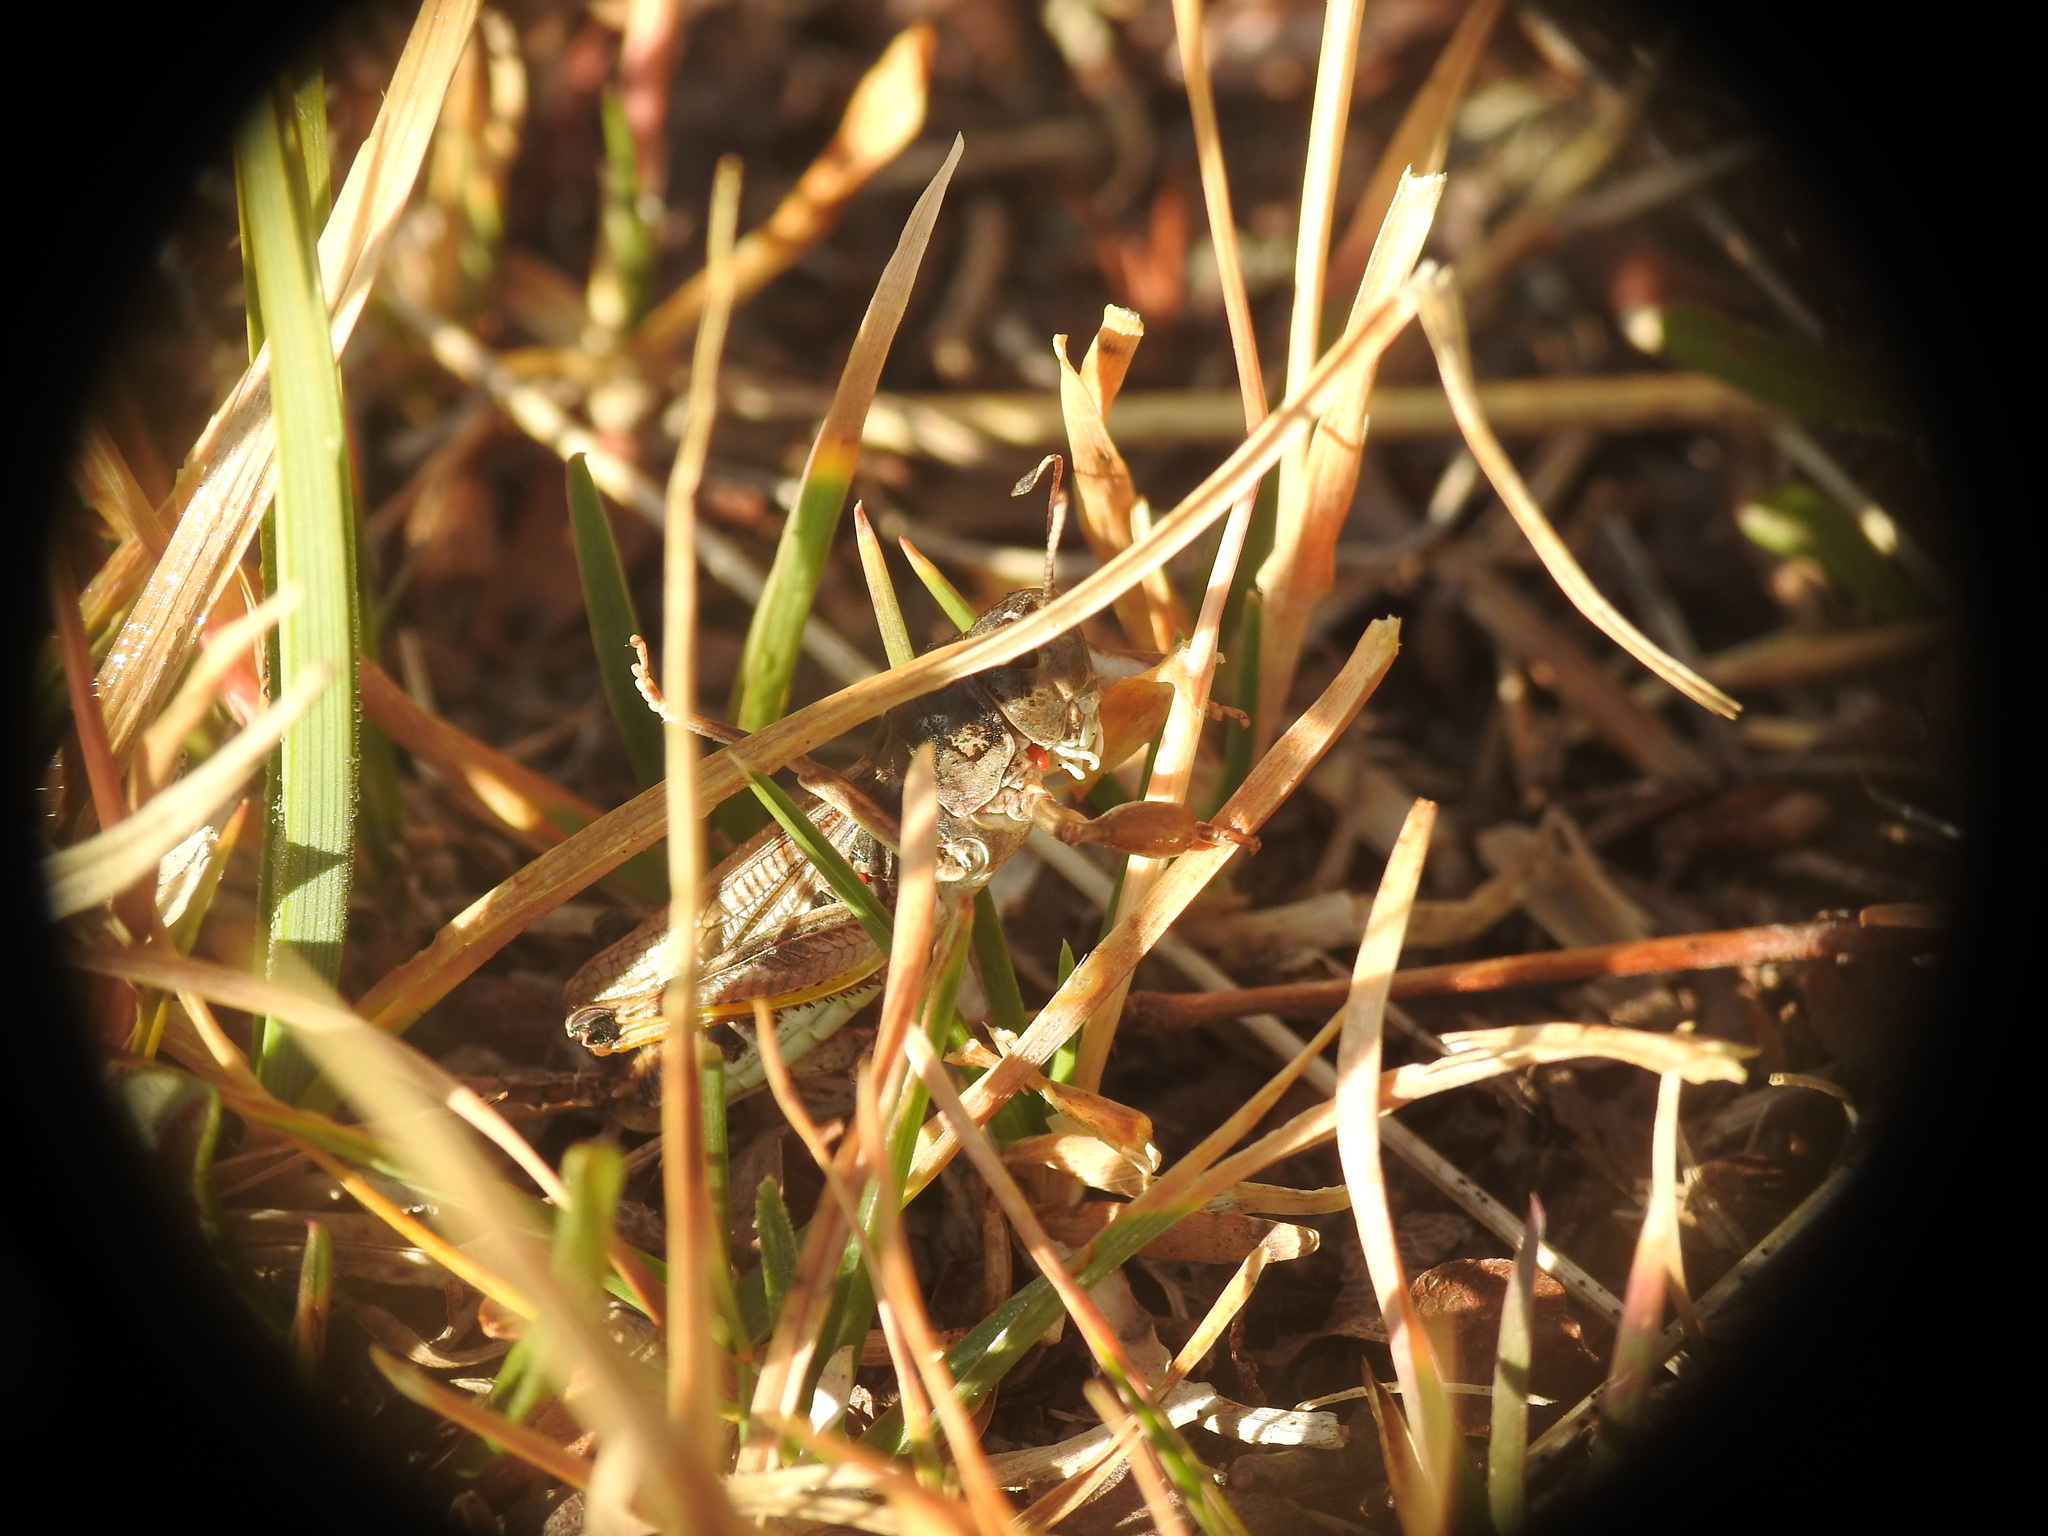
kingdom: Animalia
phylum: Arthropoda
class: Insecta
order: Orthoptera
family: Acrididae
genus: Gomphocerus
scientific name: Gomphocerus sibiricus
